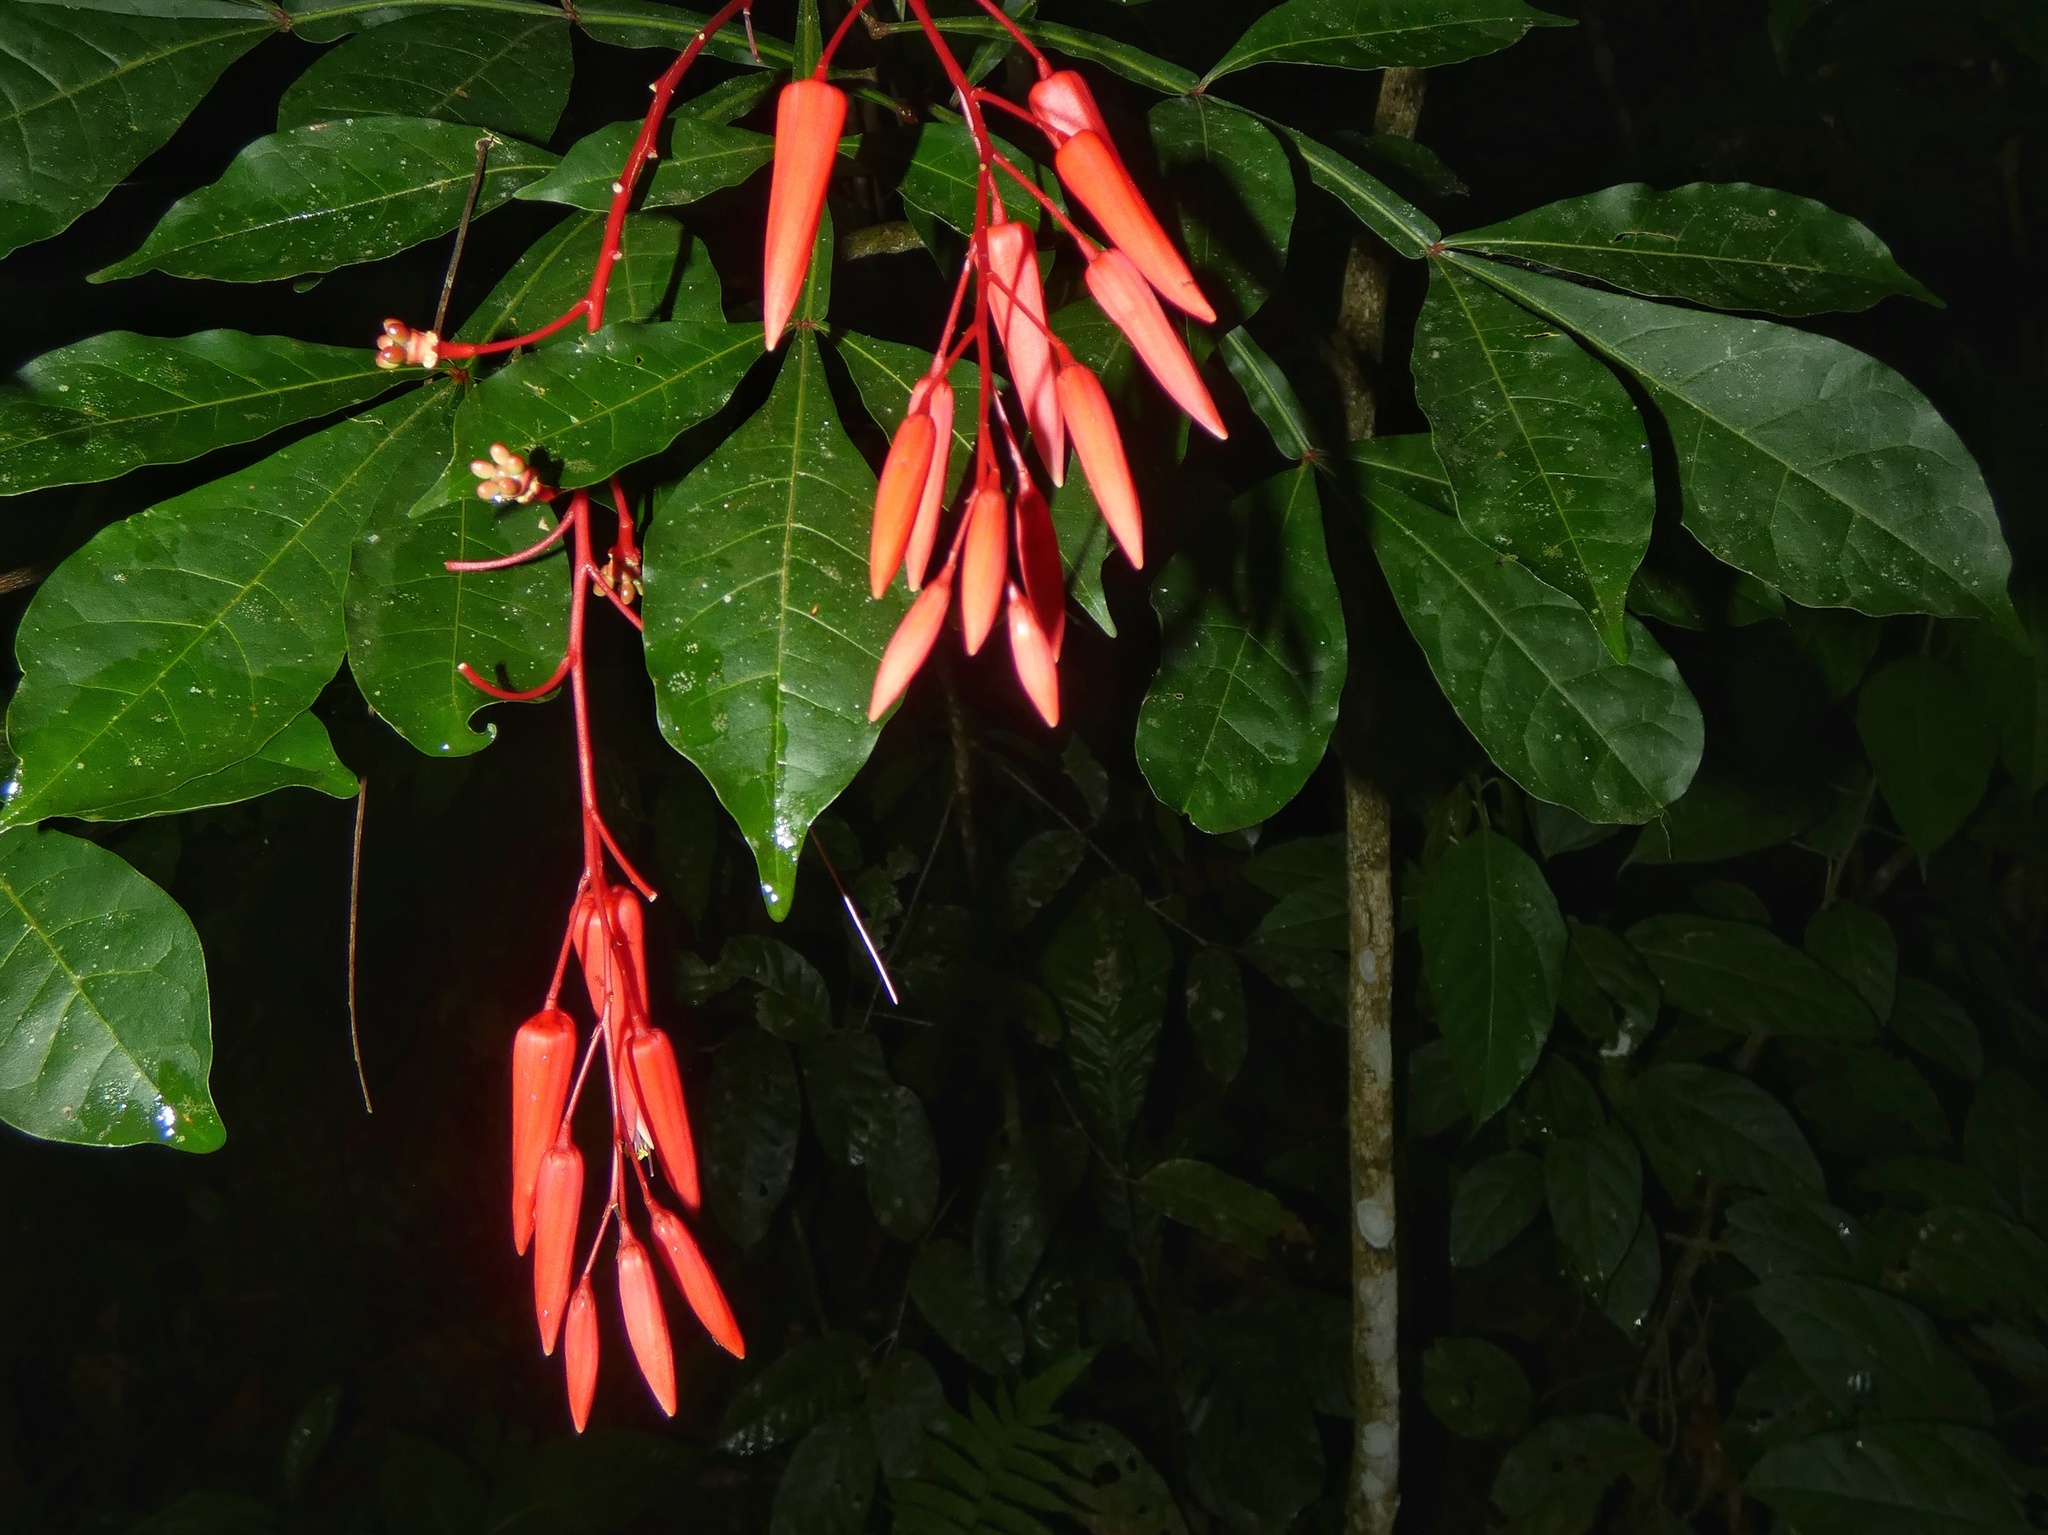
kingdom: Plantae
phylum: Tracheophyta
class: Magnoliopsida
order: Sapindales
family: Simaroubaceae
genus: Quassia
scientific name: Quassia amara
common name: Quassia
